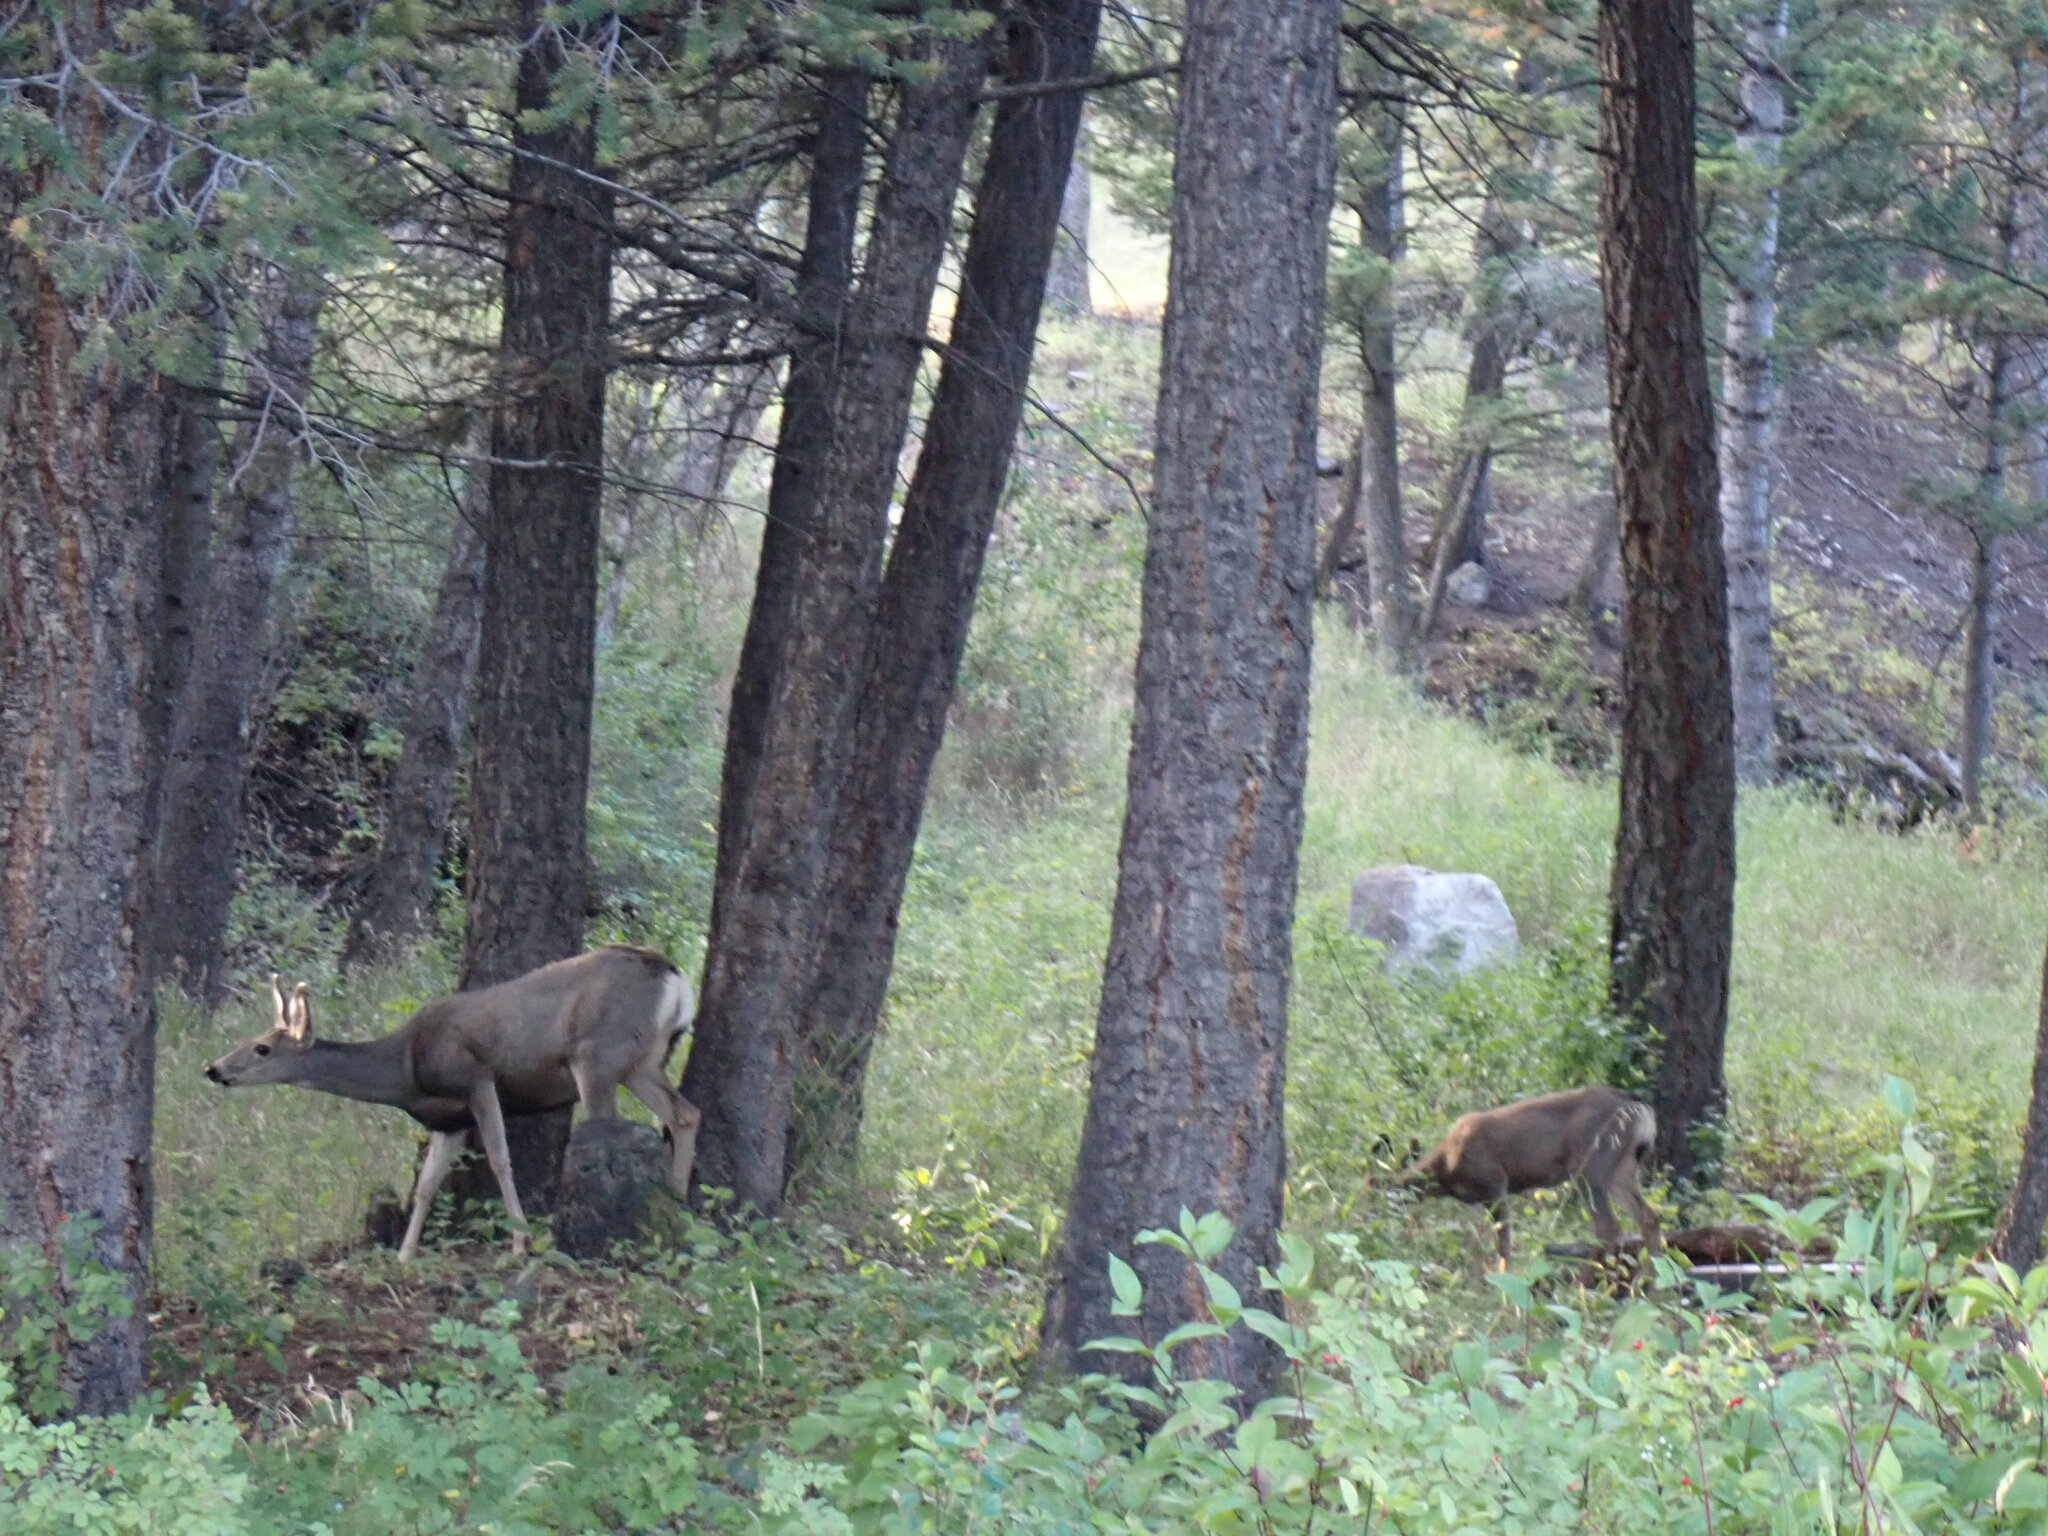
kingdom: Animalia
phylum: Chordata
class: Mammalia
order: Artiodactyla
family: Cervidae
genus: Odocoileus
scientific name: Odocoileus hemionus
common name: Mule deer
